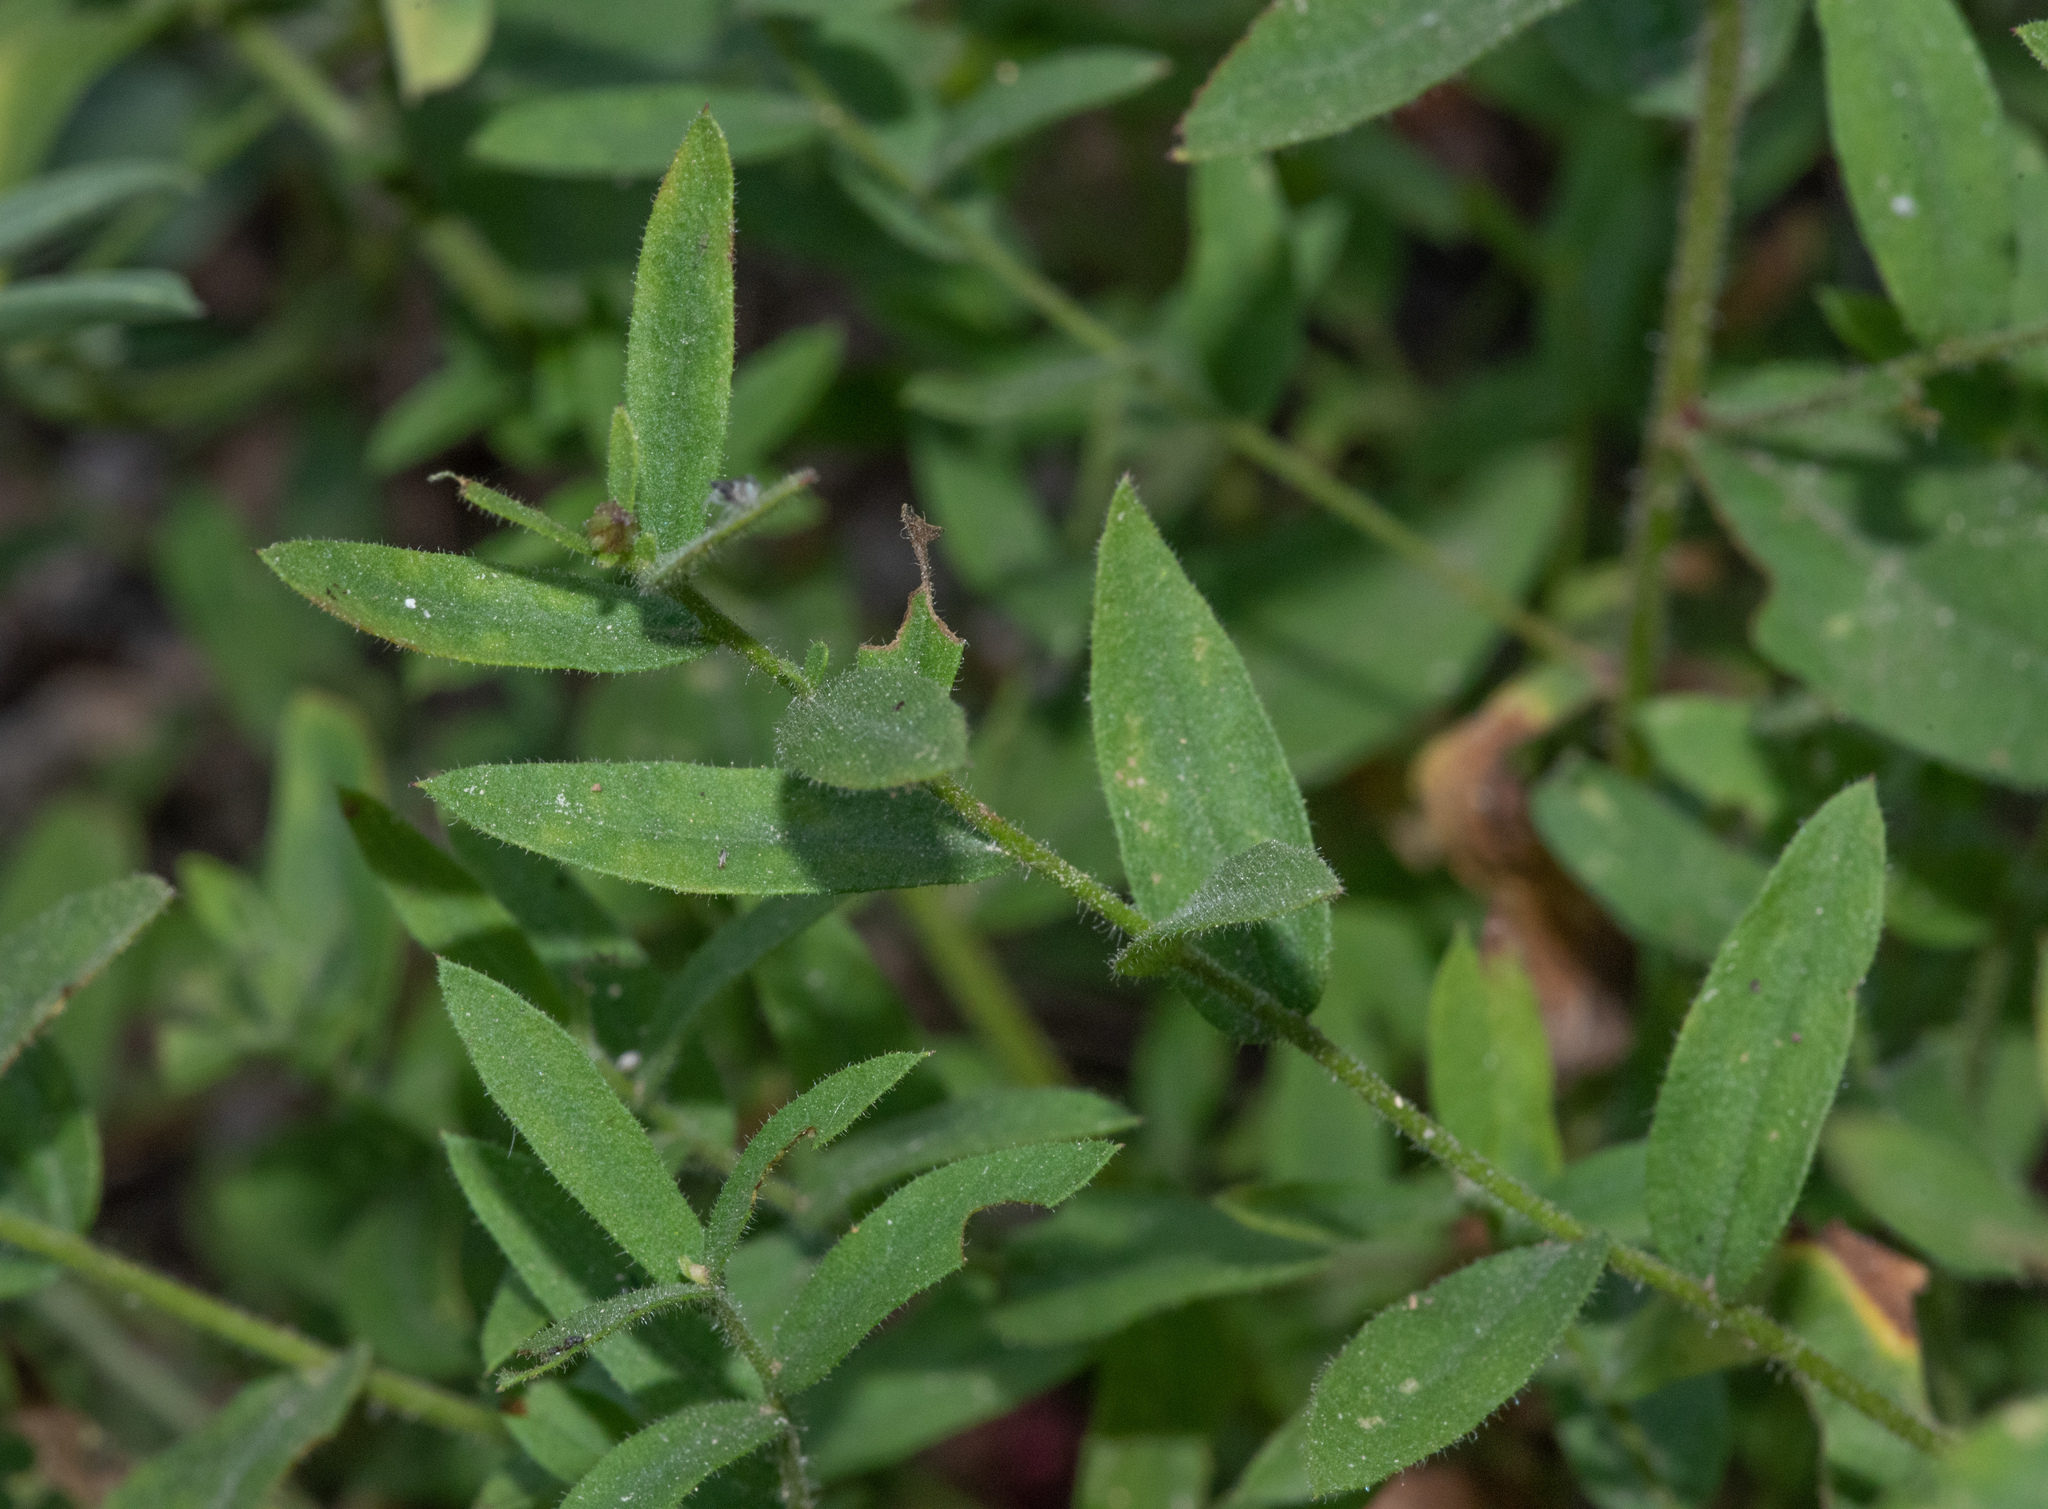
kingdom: Plantae
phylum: Tracheophyta
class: Magnoliopsida
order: Asterales
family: Asteraceae
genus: Eucephalus
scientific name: Eucephalus breweri
